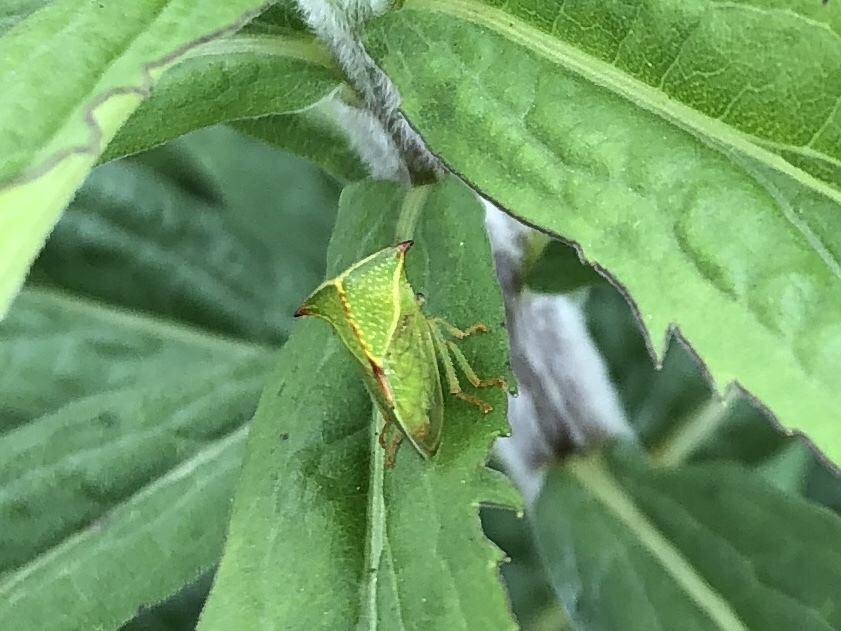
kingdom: Animalia
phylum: Arthropoda
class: Insecta
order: Hemiptera
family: Membracidae
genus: Stictocephala
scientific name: Stictocephala bisonia
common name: American buffalo treehopper
